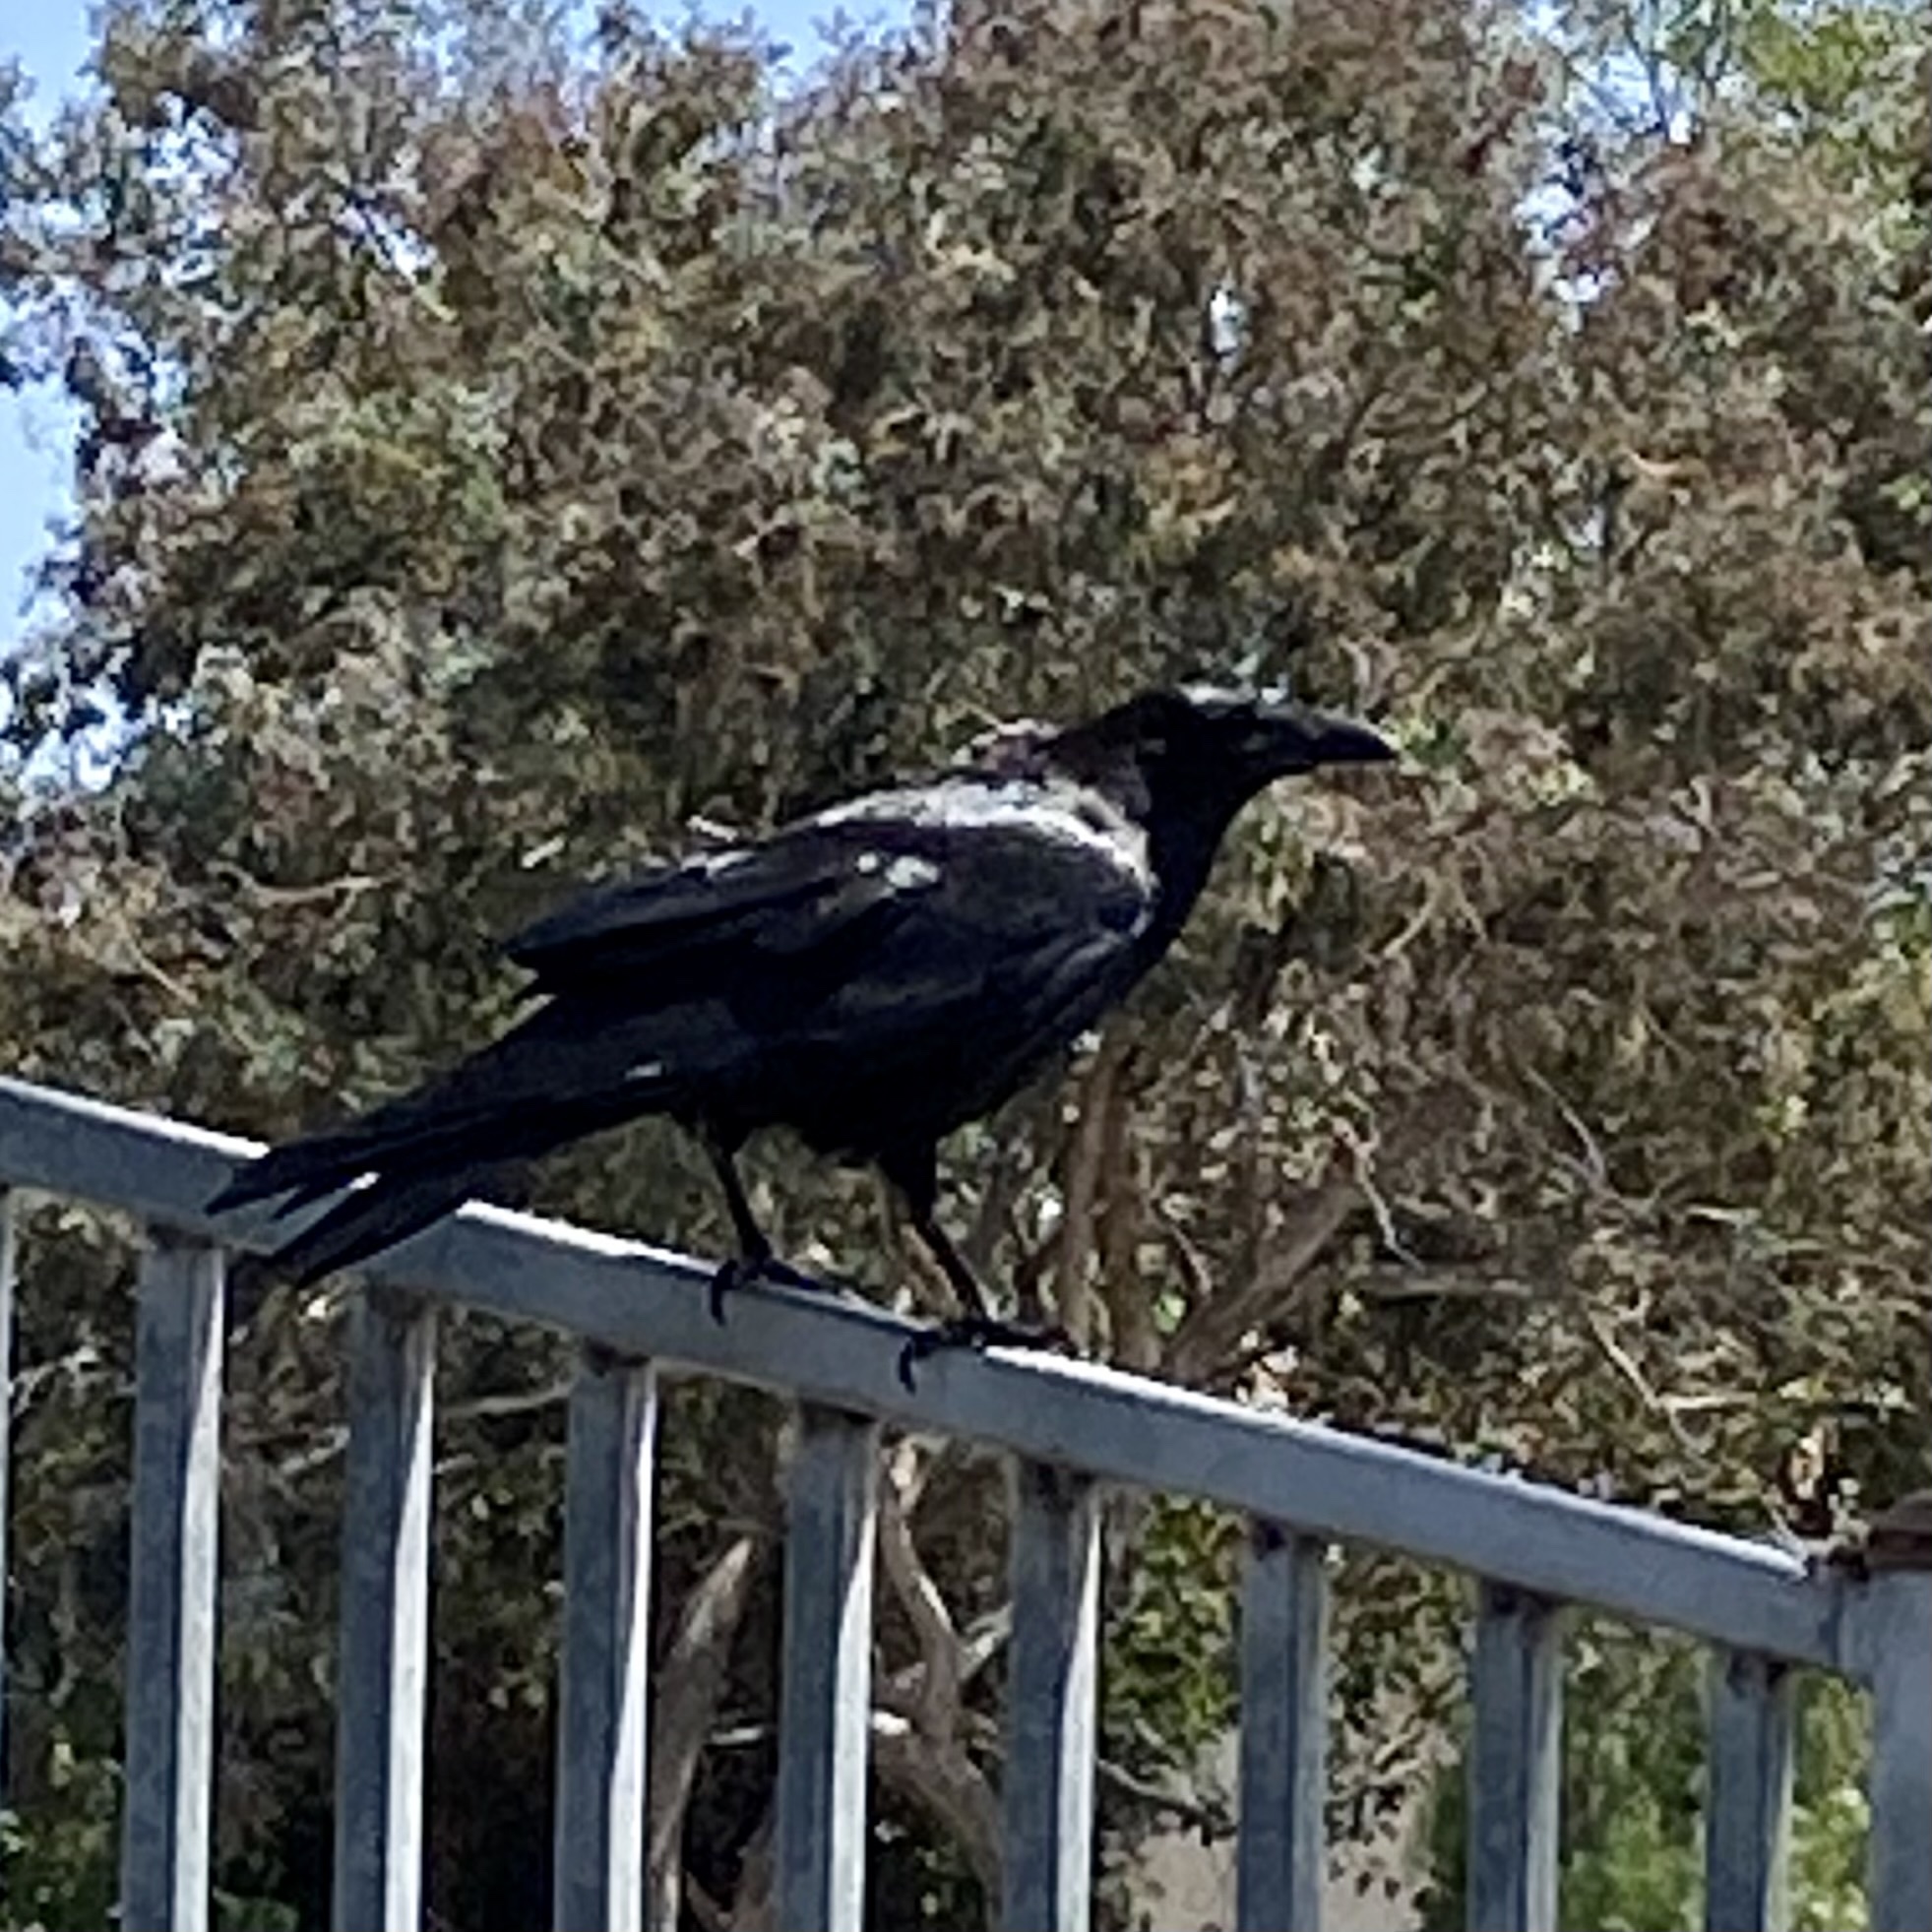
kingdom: Animalia
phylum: Chordata
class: Aves
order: Passeriformes
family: Corvidae
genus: Corvus
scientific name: Corvus corax
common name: Common raven
